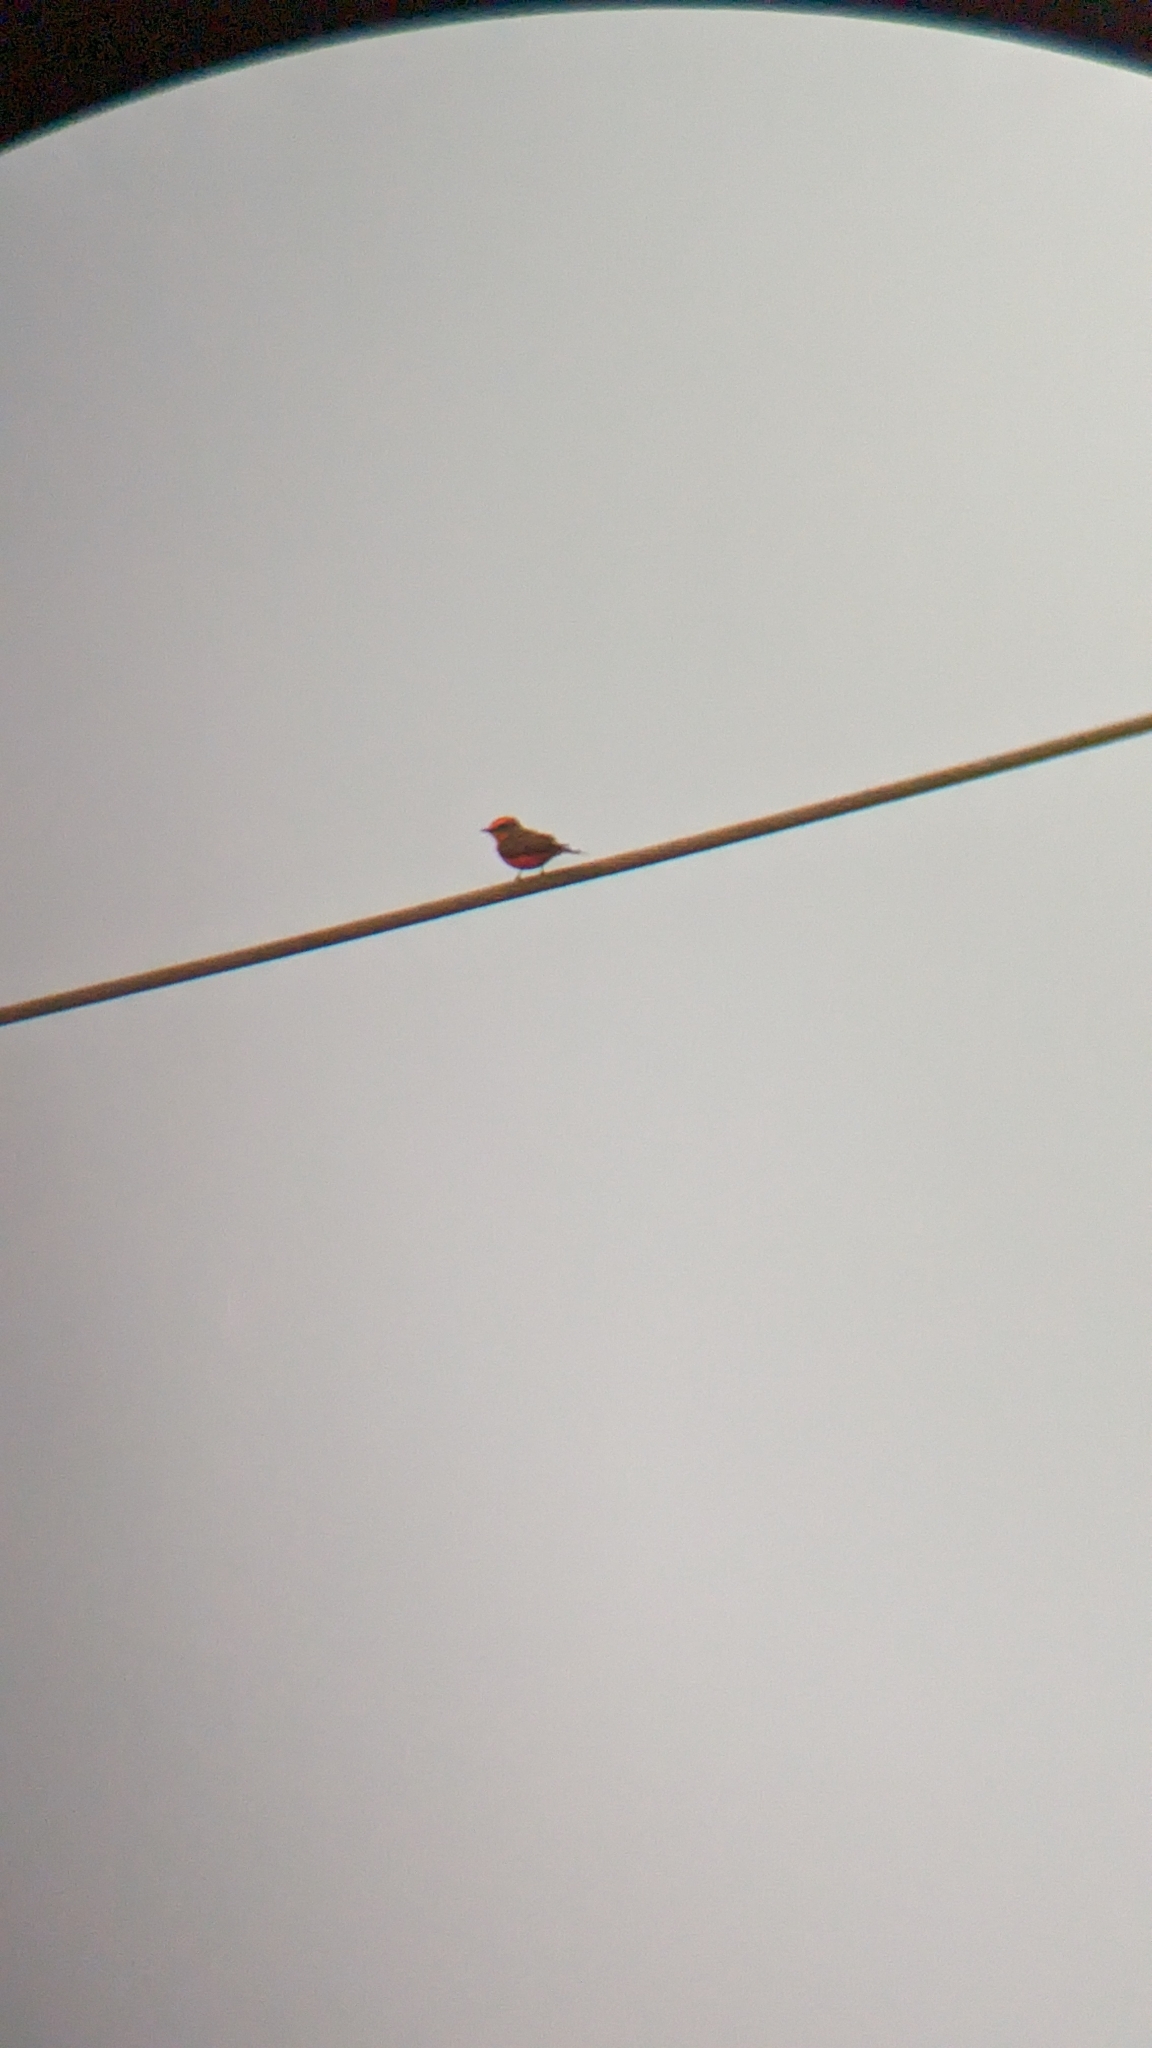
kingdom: Animalia
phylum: Chordata
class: Aves
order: Passeriformes
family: Tyrannidae
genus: Pyrocephalus
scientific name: Pyrocephalus rubinus
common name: Vermilion flycatcher
